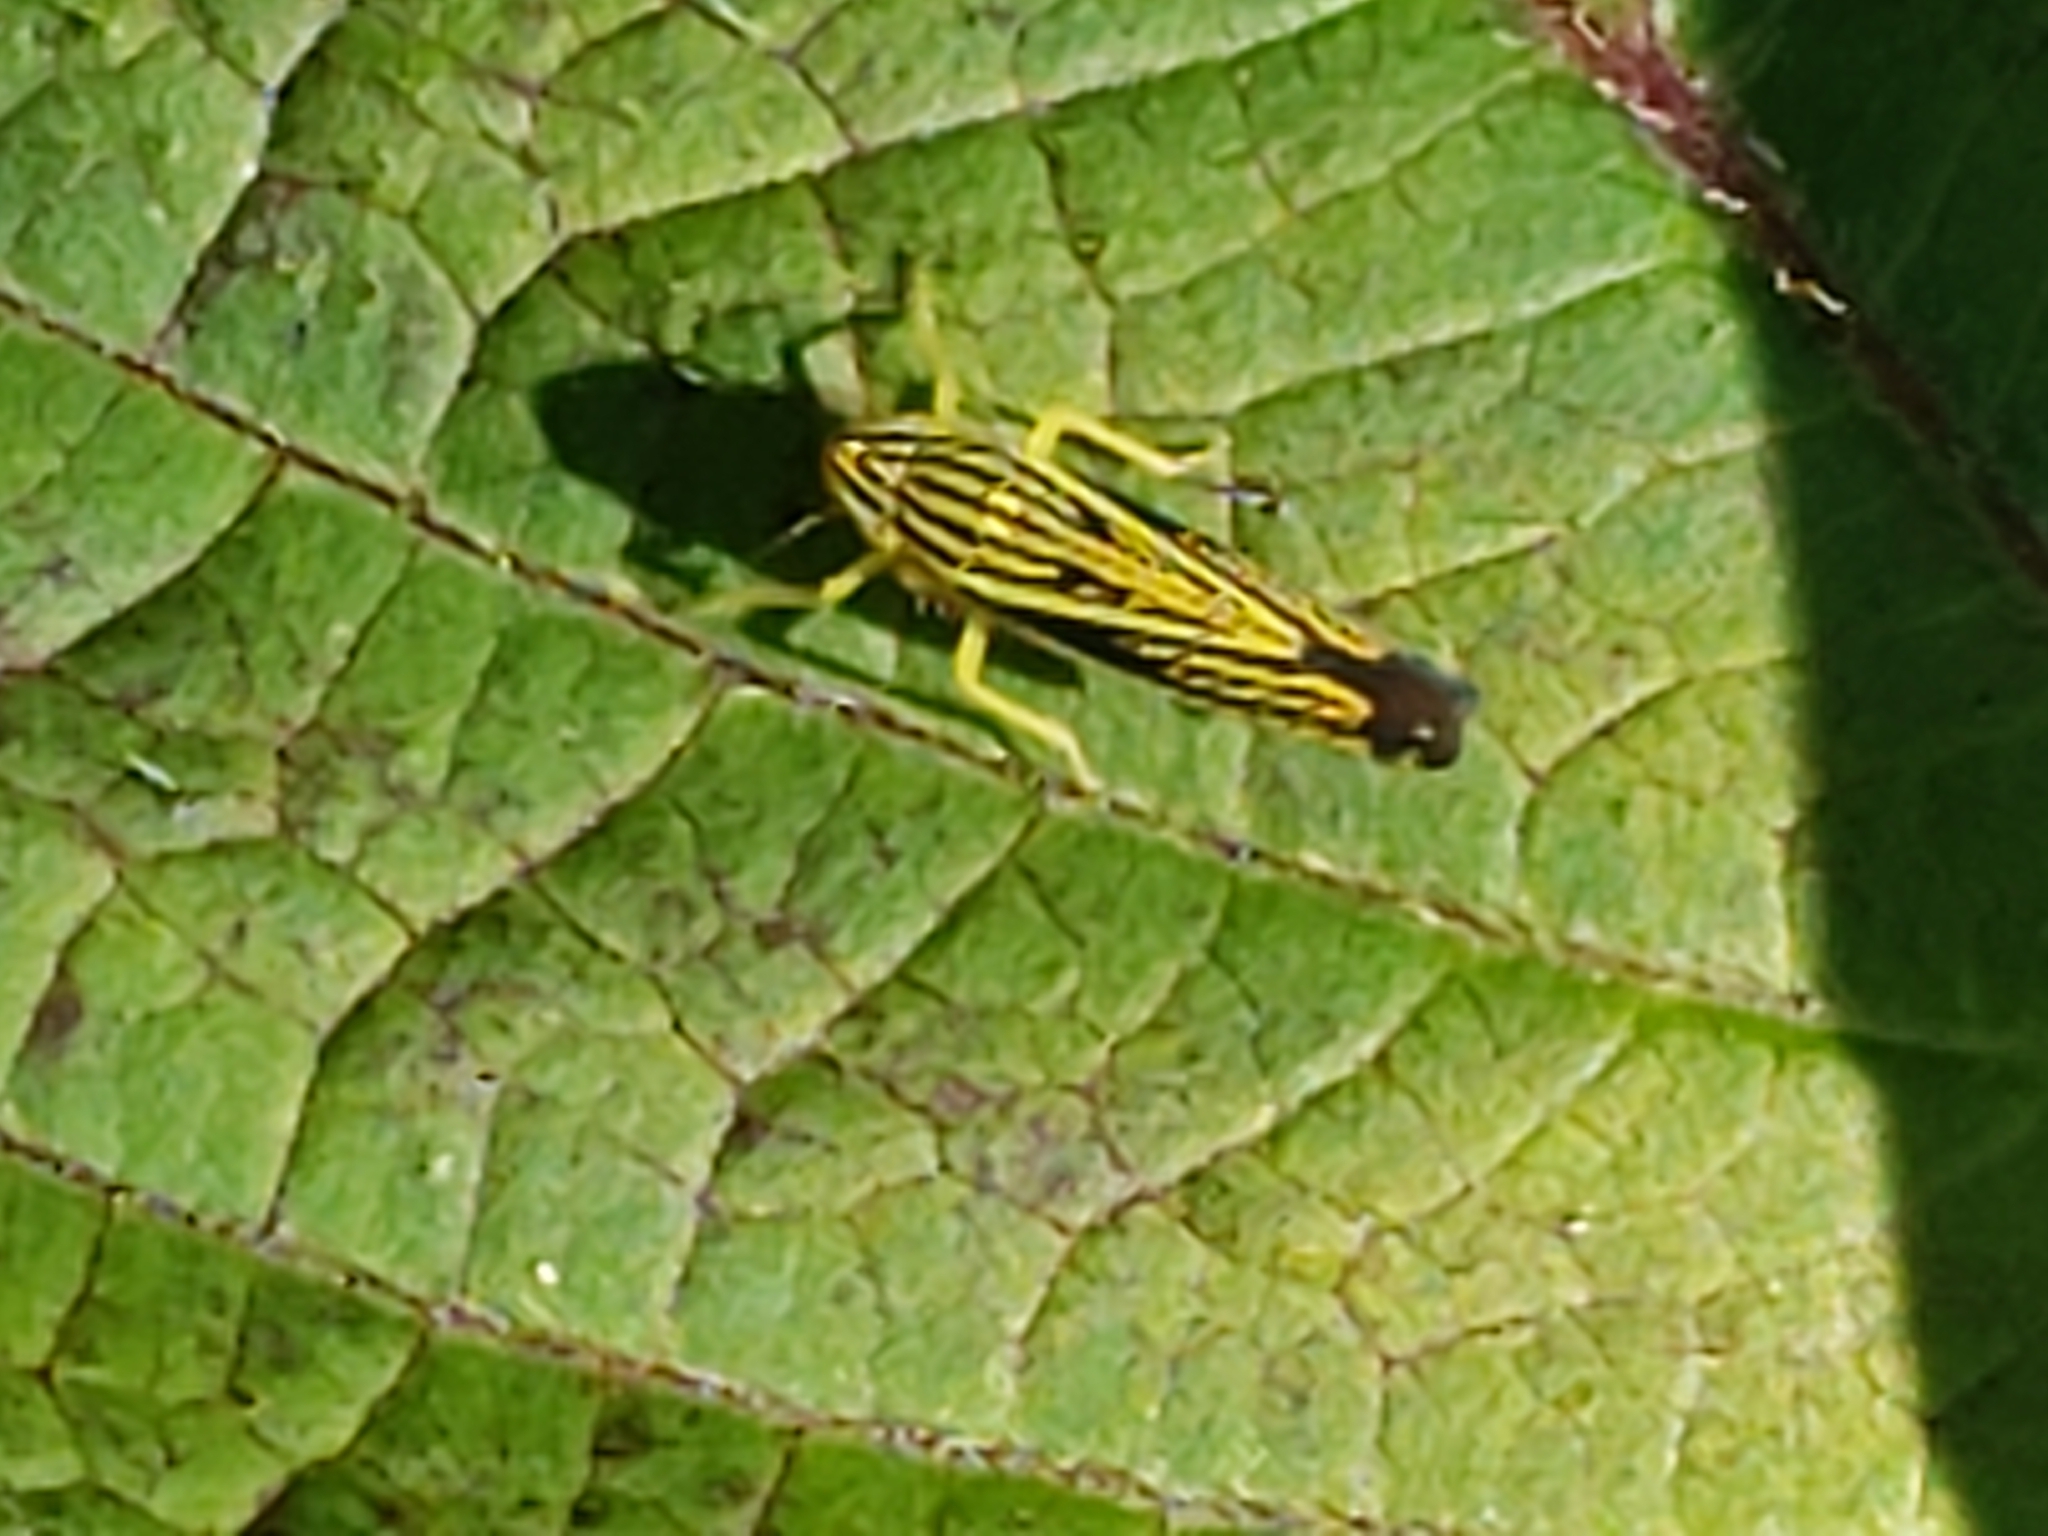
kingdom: Animalia
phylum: Arthropoda
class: Insecta
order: Hemiptera
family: Cicadellidae
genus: Sibovia
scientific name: Sibovia occatoria
